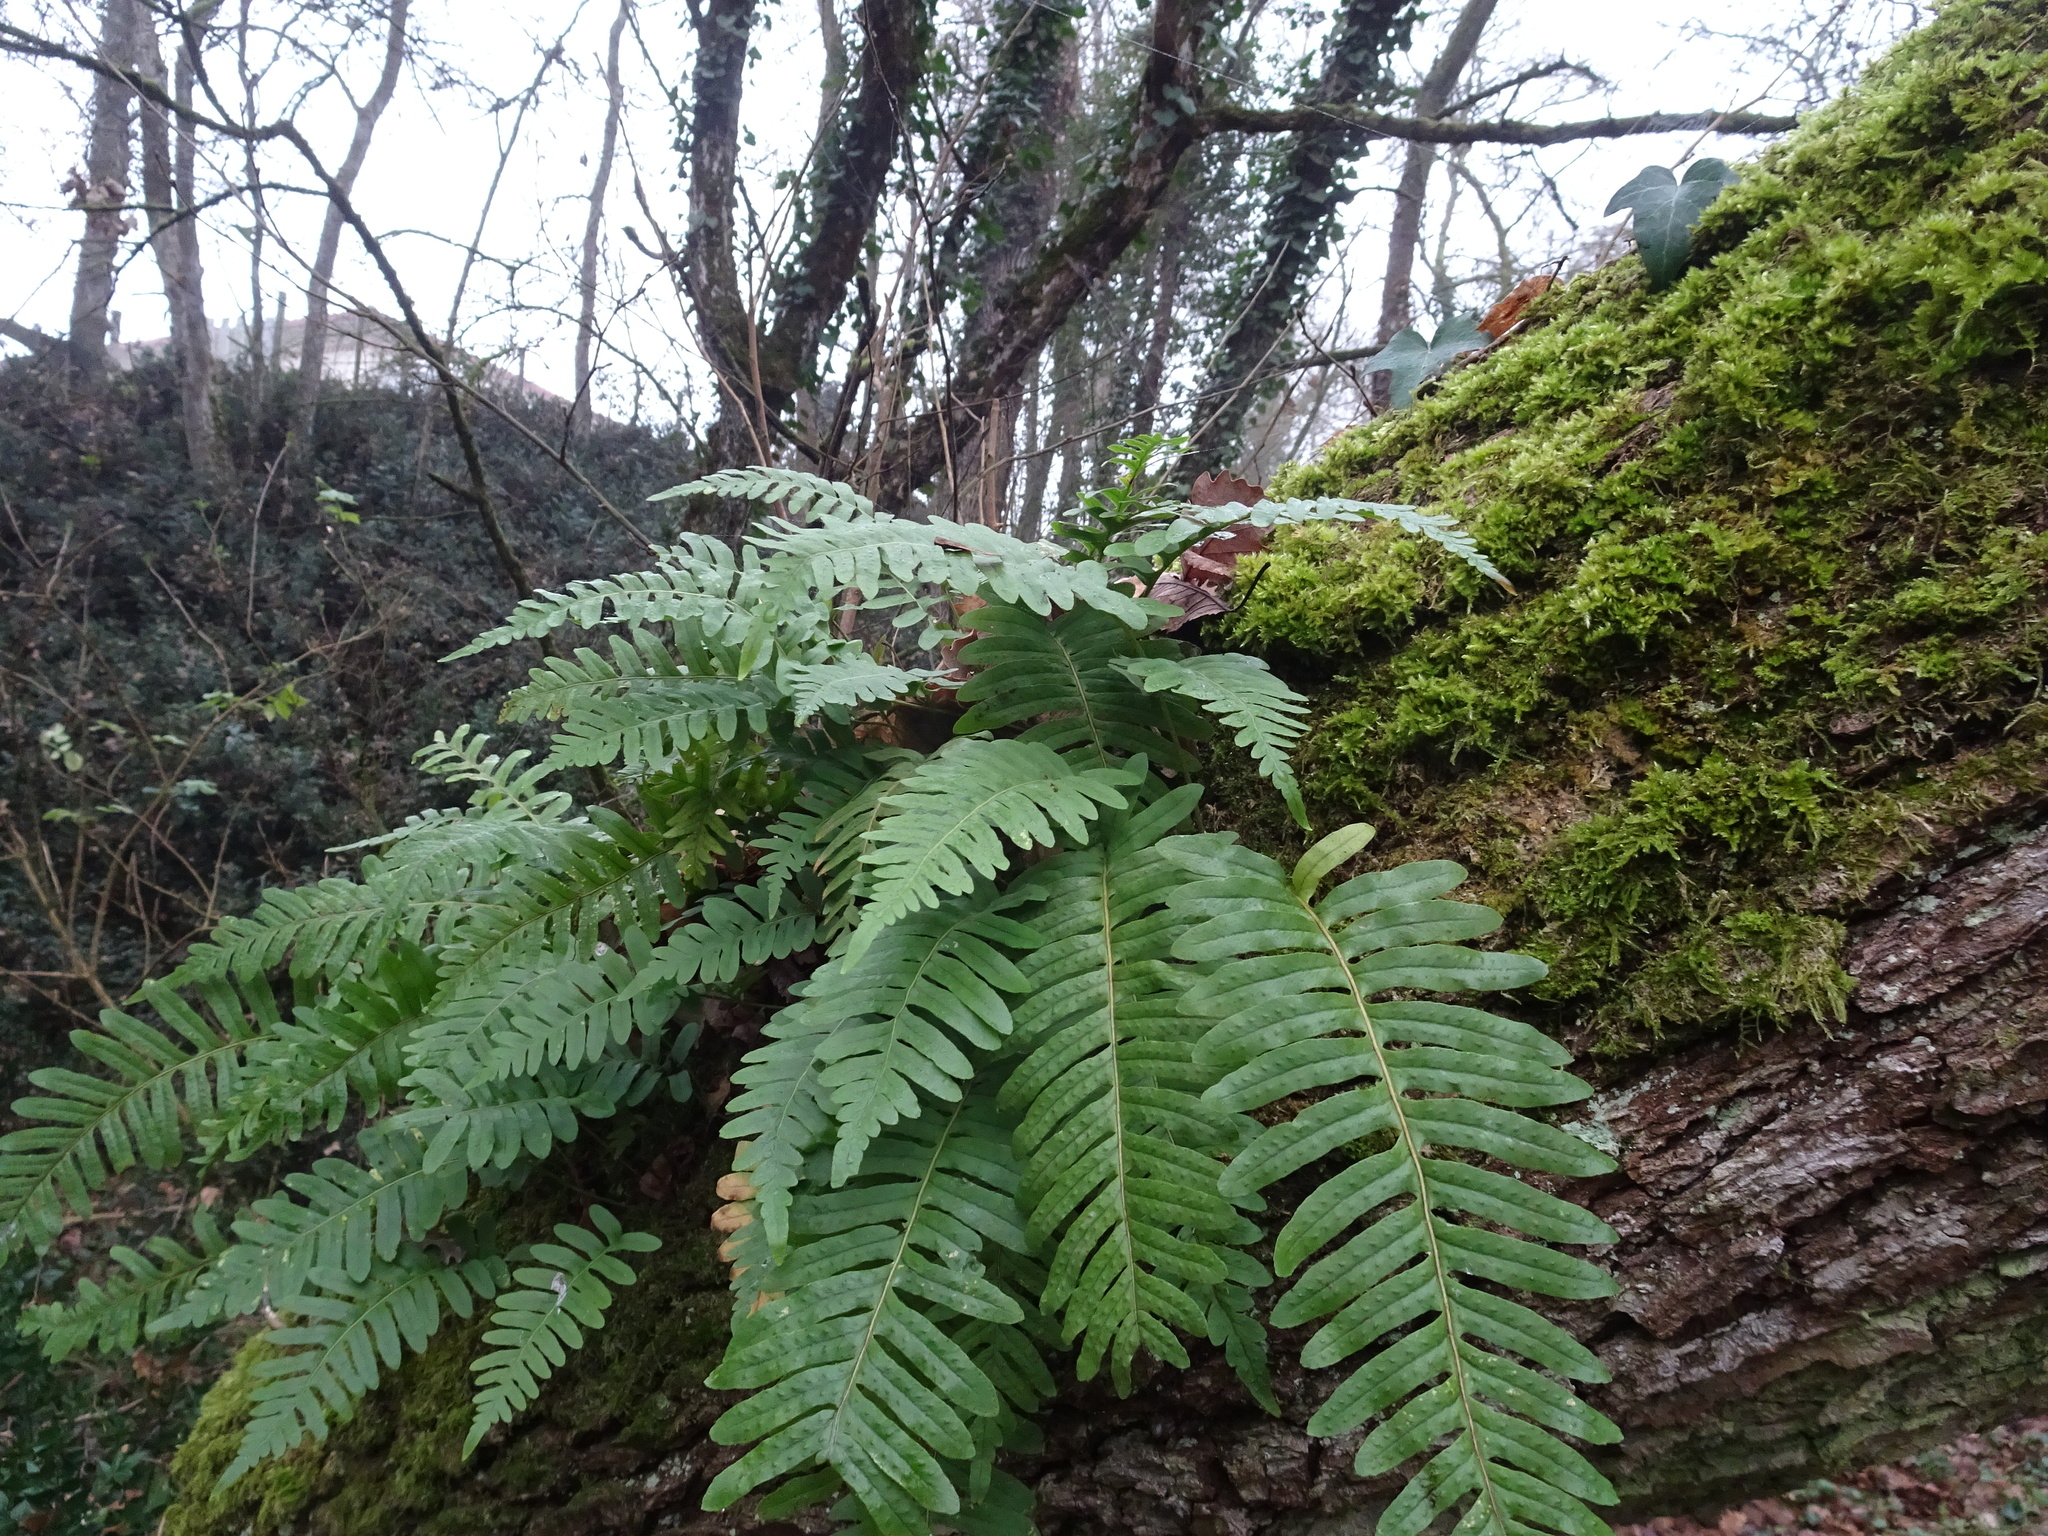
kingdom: Plantae
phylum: Tracheophyta
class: Polypodiopsida
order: Polypodiales
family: Polypodiaceae
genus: Polypodium
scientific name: Polypodium vulgare
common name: Common polypody
